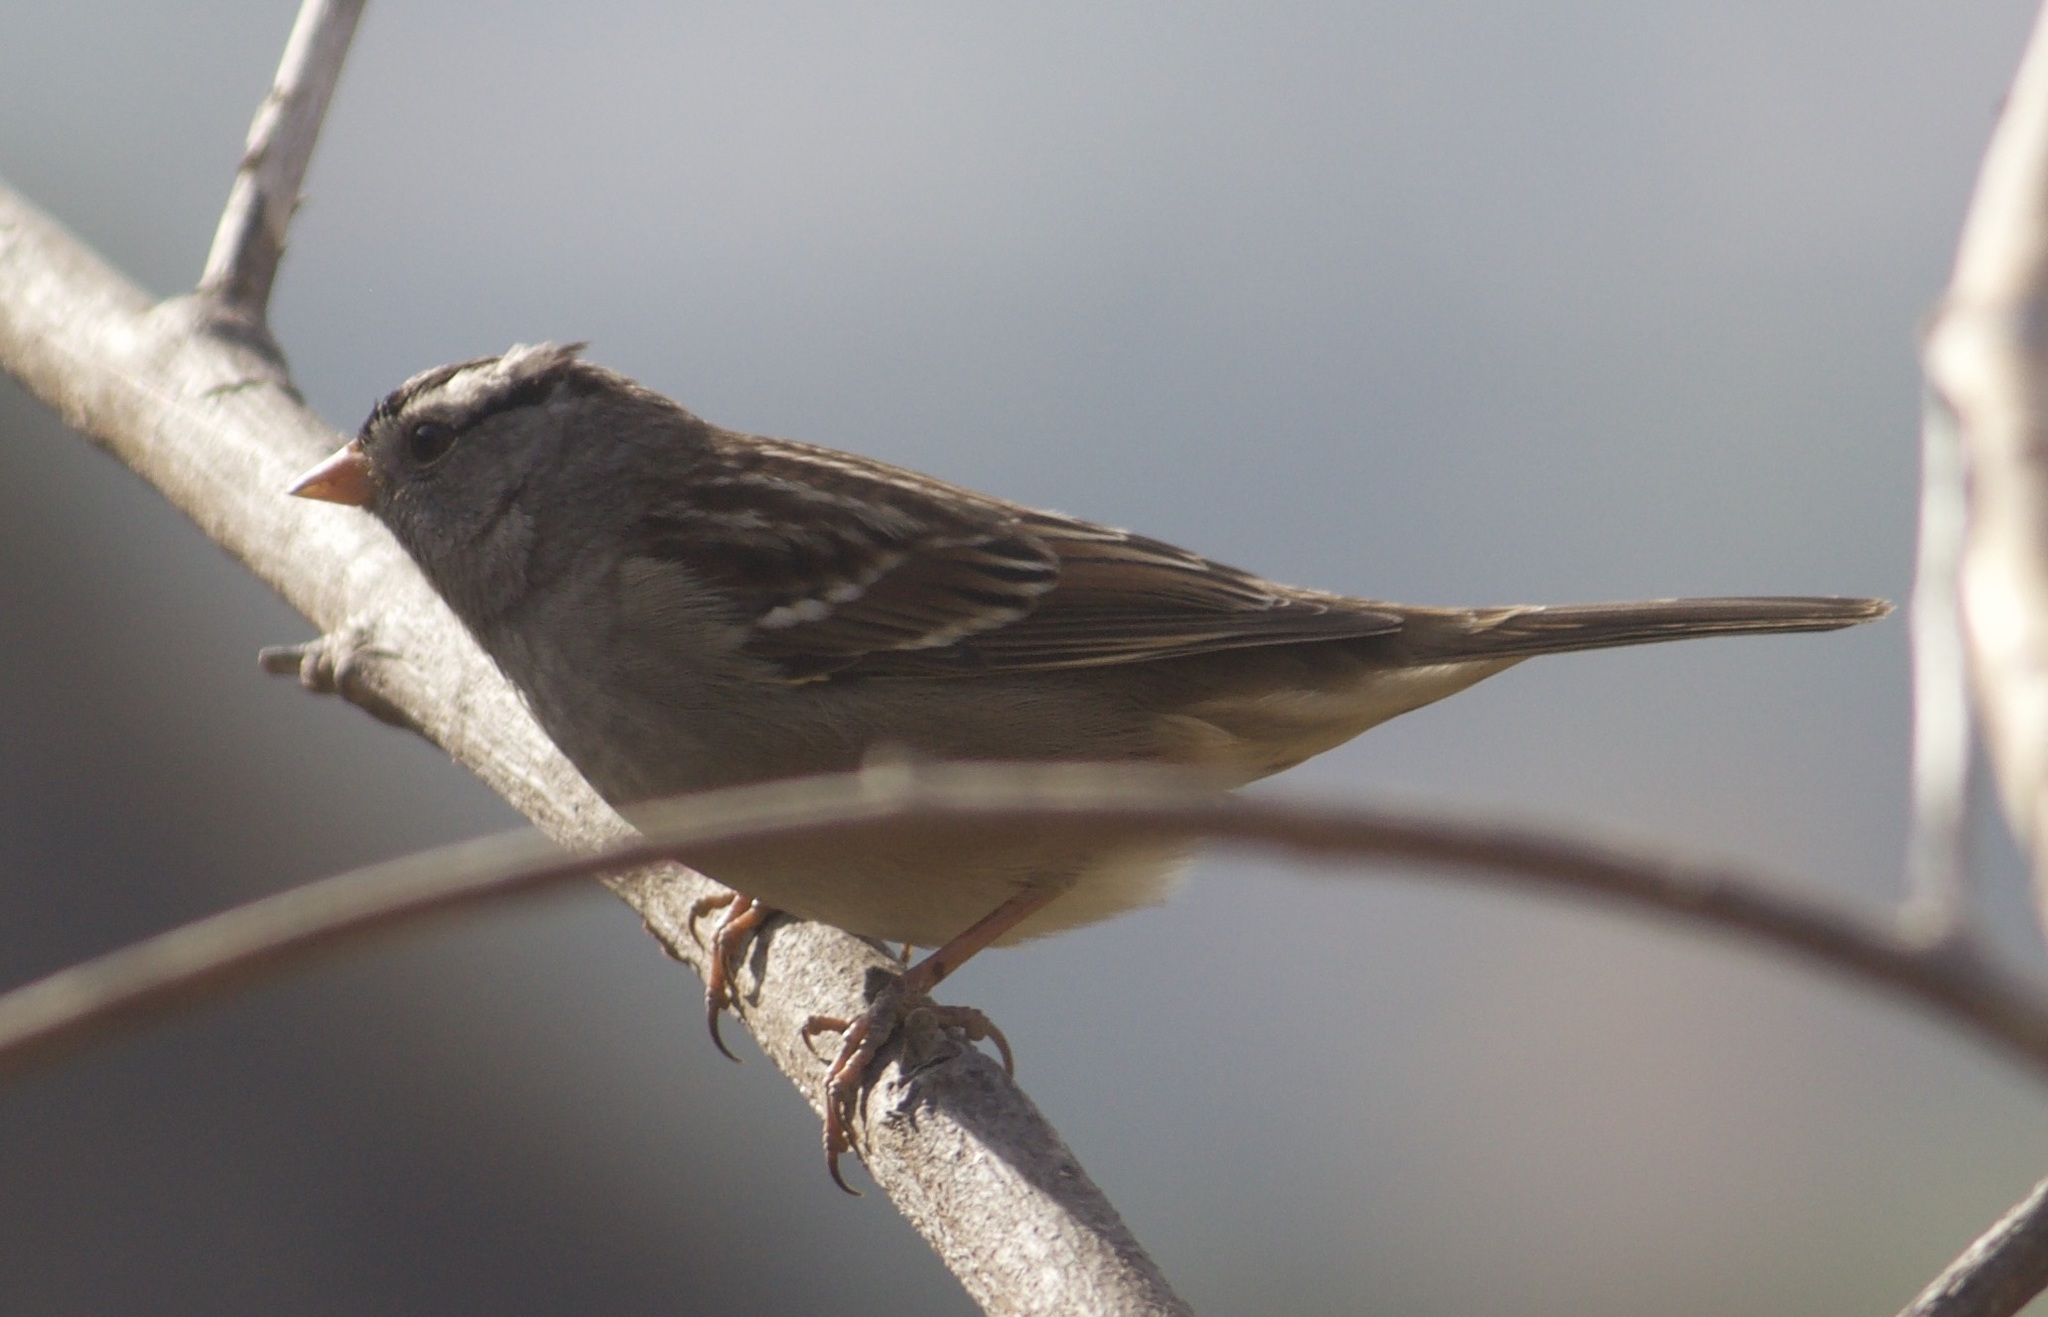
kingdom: Animalia
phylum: Chordata
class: Aves
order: Passeriformes
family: Passerellidae
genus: Zonotrichia
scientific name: Zonotrichia leucophrys
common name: White-crowned sparrow
